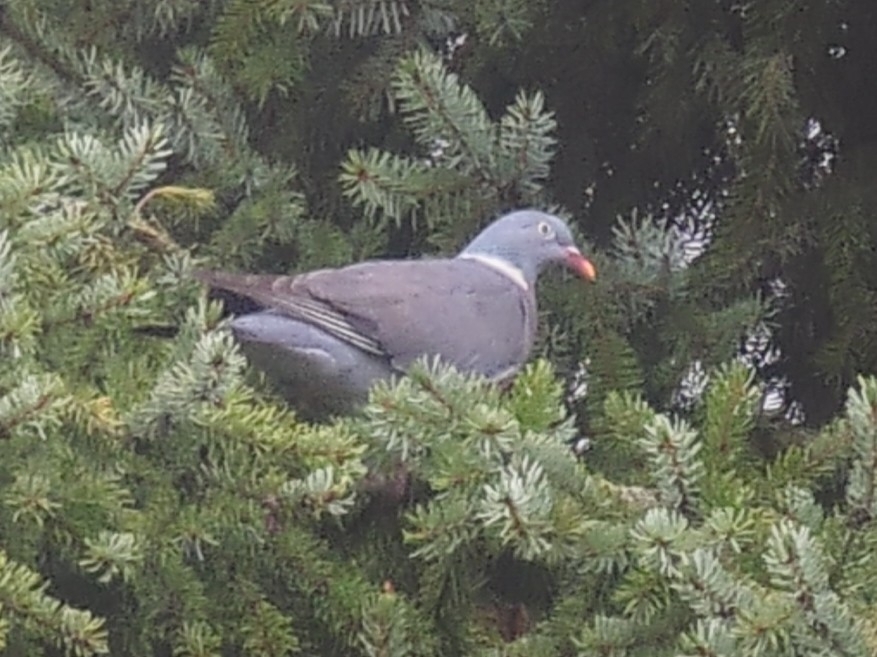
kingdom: Animalia
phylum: Chordata
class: Aves
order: Columbiformes
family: Columbidae
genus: Columba
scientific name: Columba palumbus
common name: Common wood pigeon
